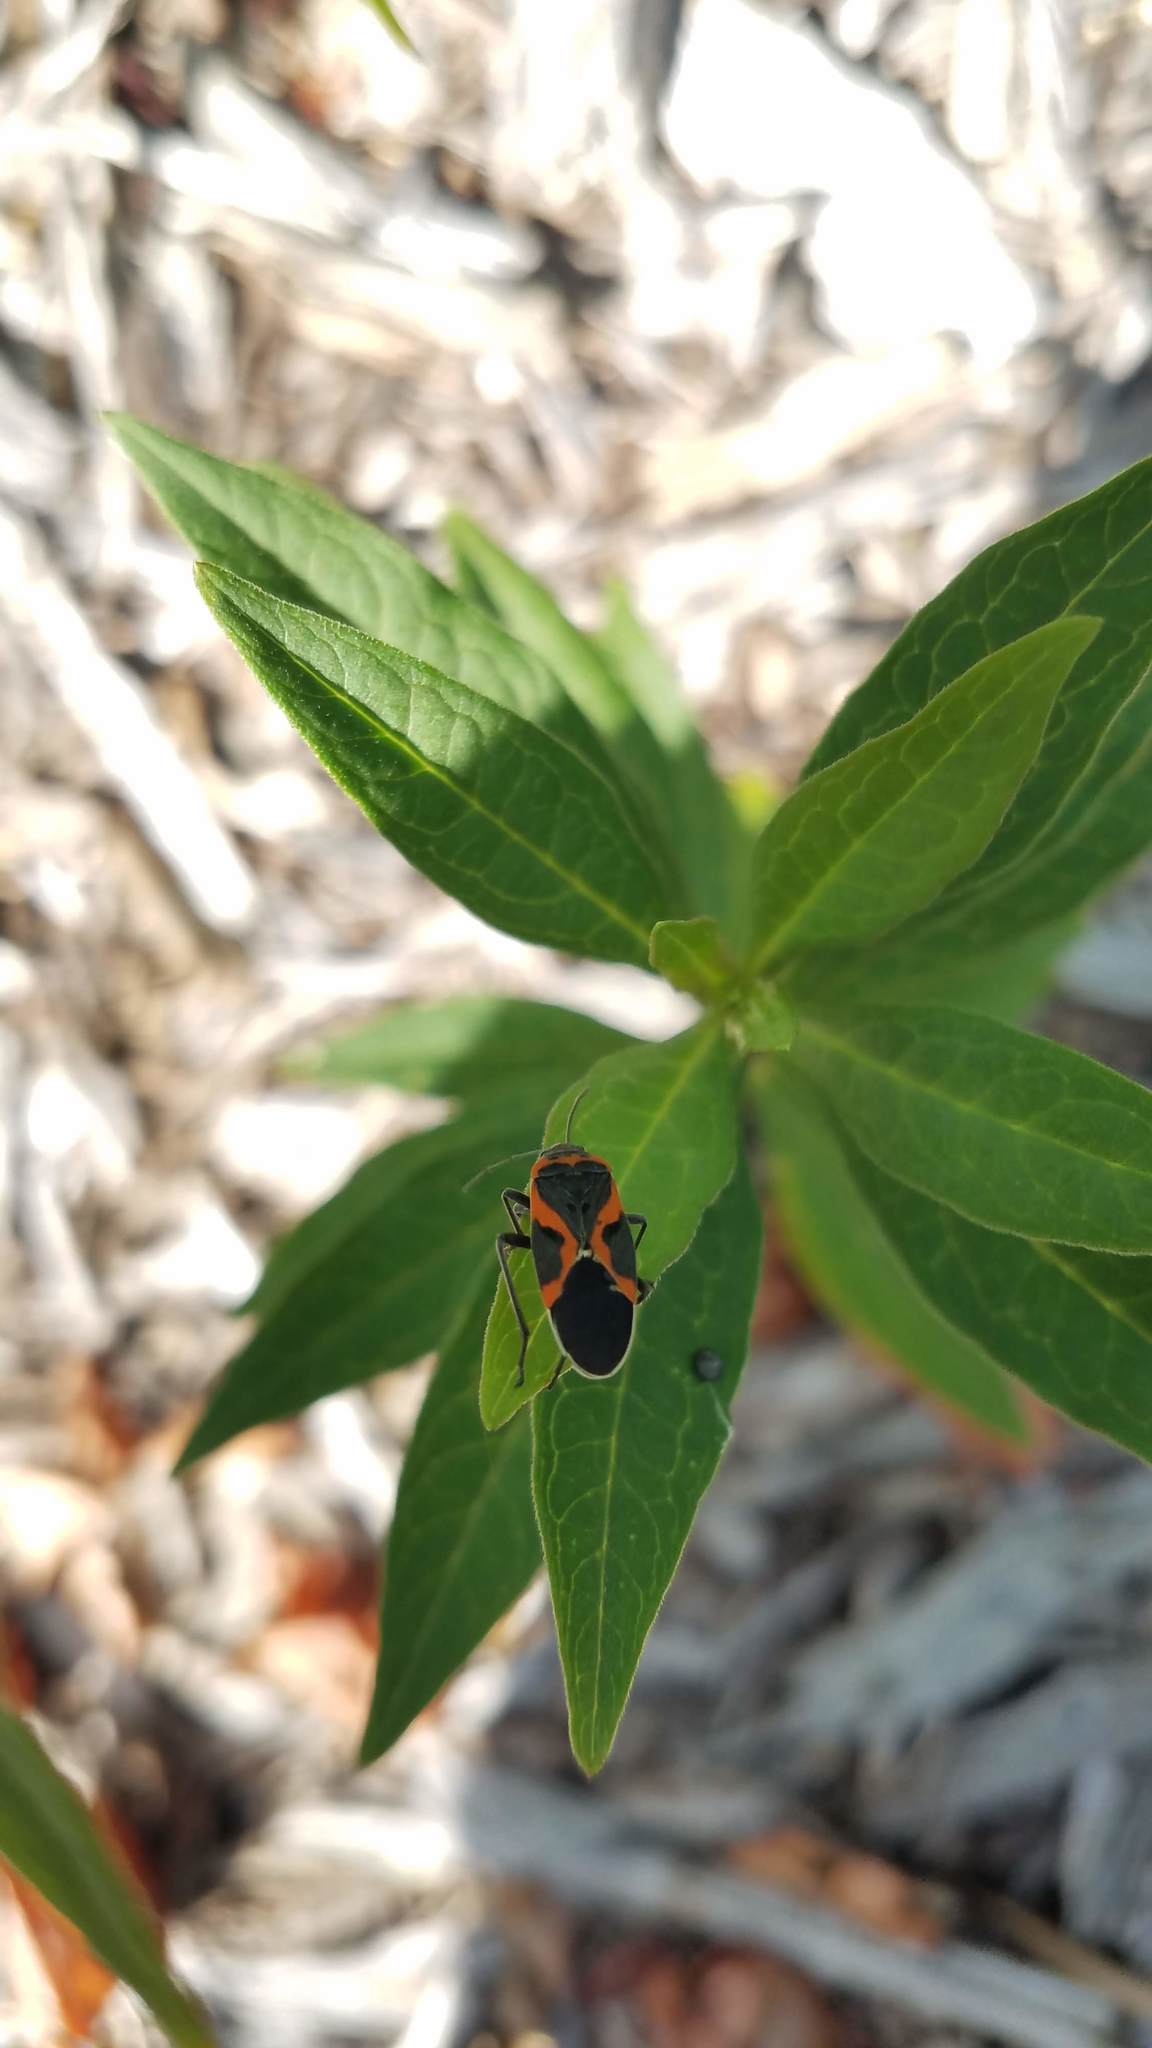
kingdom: Animalia
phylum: Arthropoda
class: Insecta
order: Hemiptera
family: Lygaeidae
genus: Lygaeus
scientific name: Lygaeus kalmii
